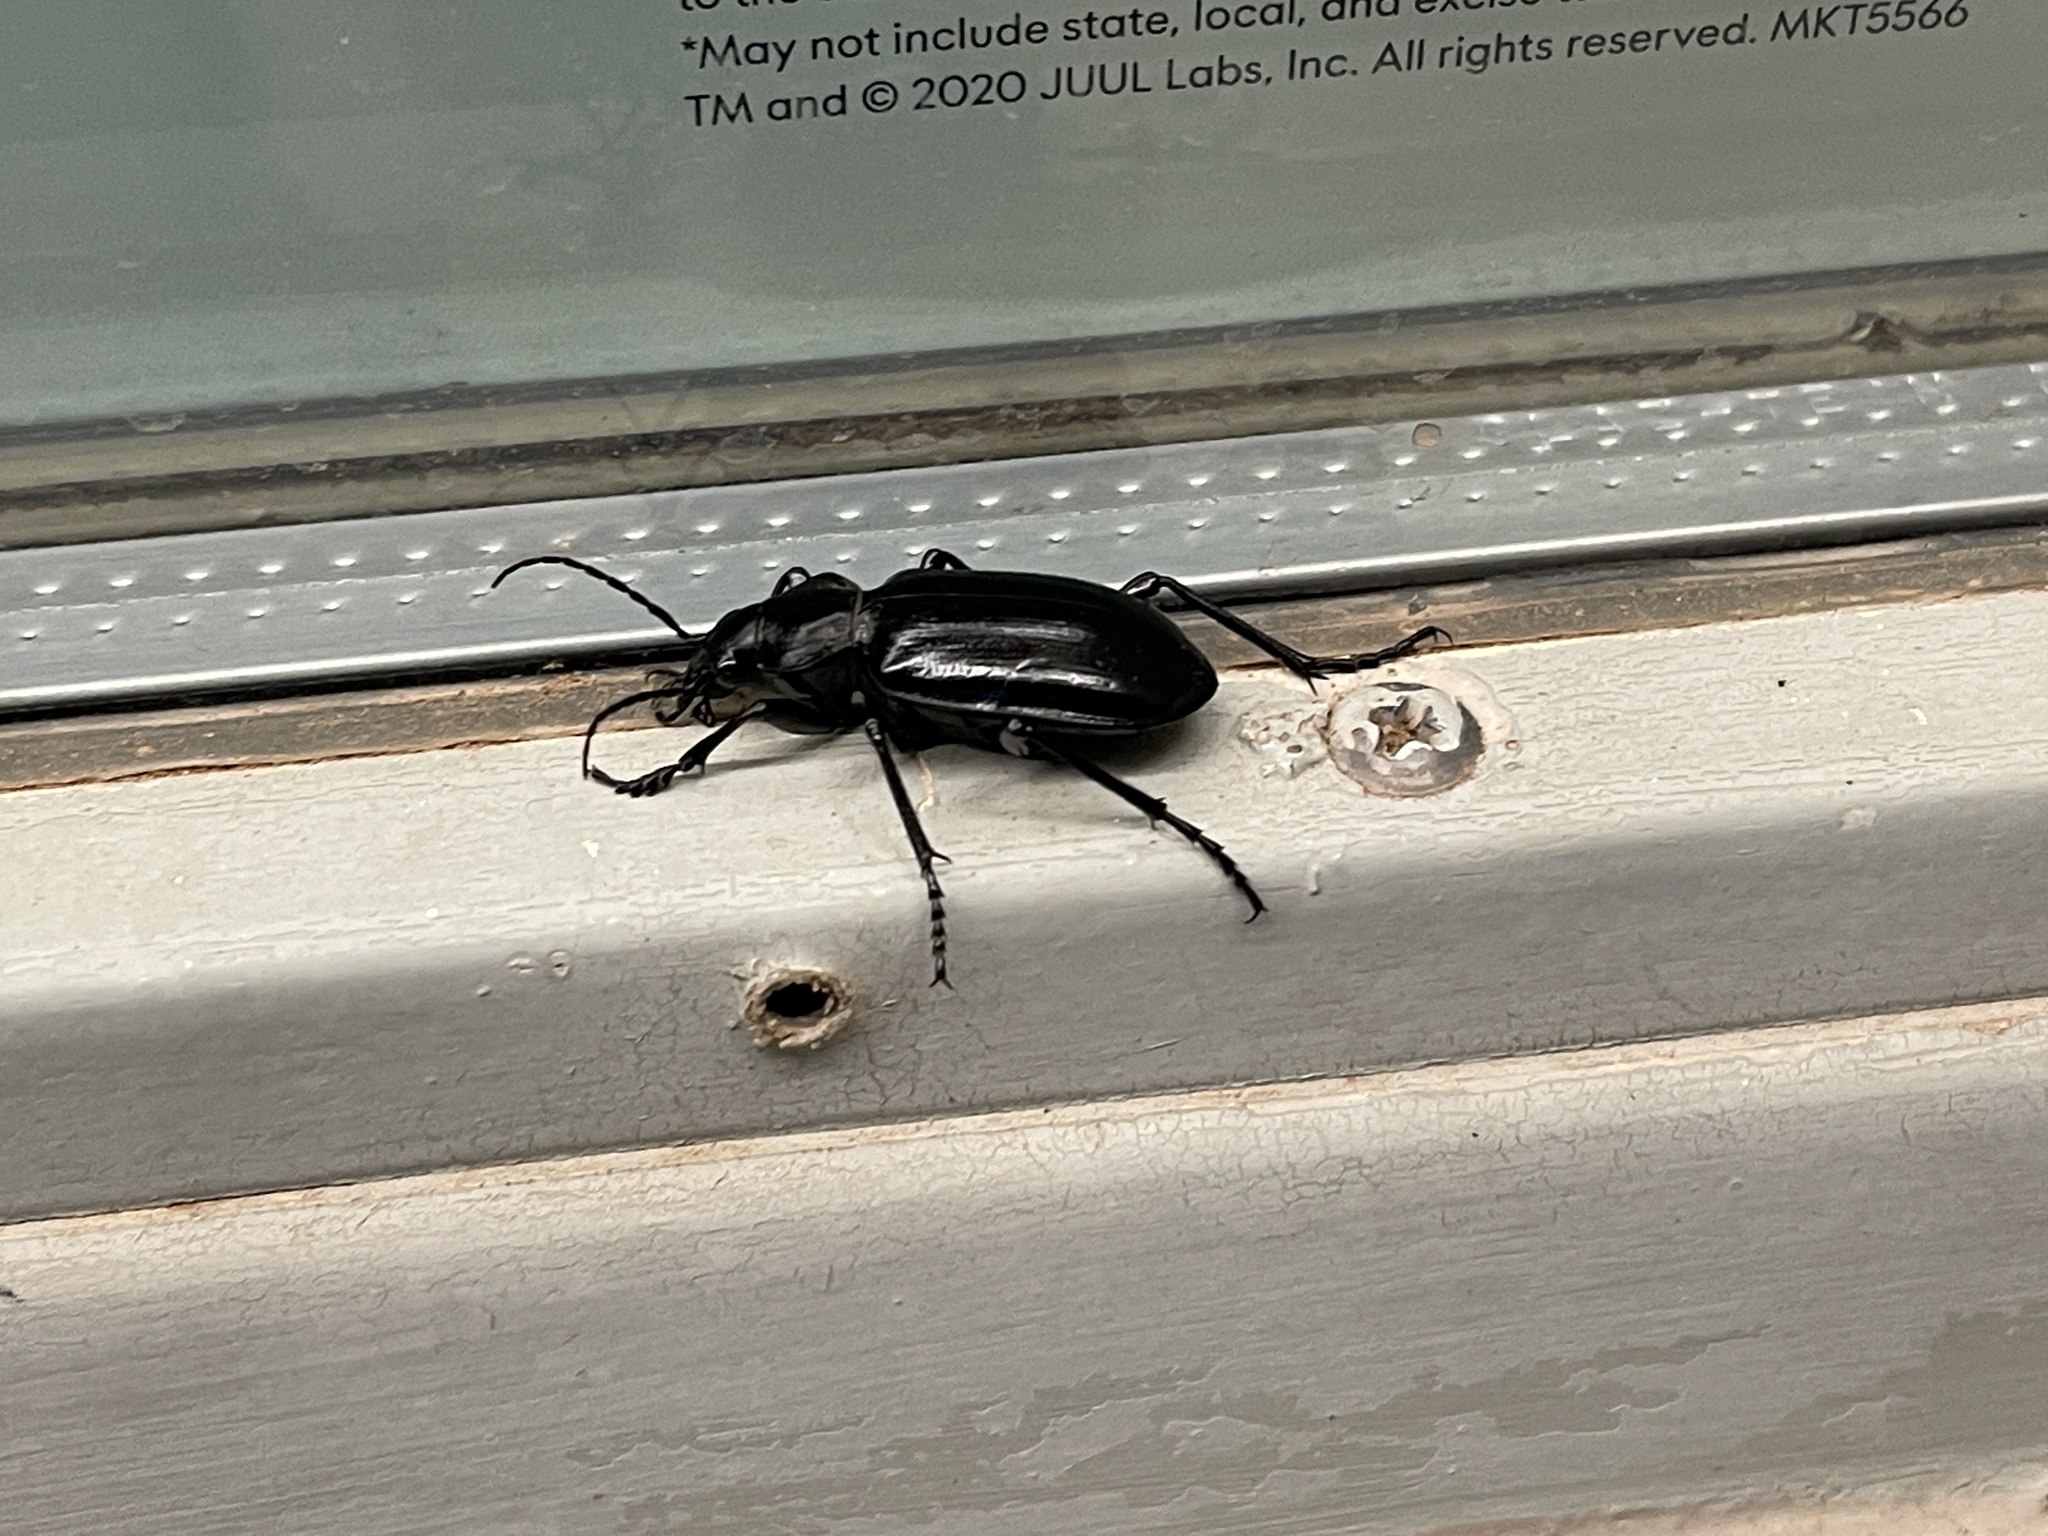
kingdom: Animalia
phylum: Arthropoda
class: Insecta
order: Coleoptera
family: Carabidae
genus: Calosoma
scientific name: Calosoma marginale
